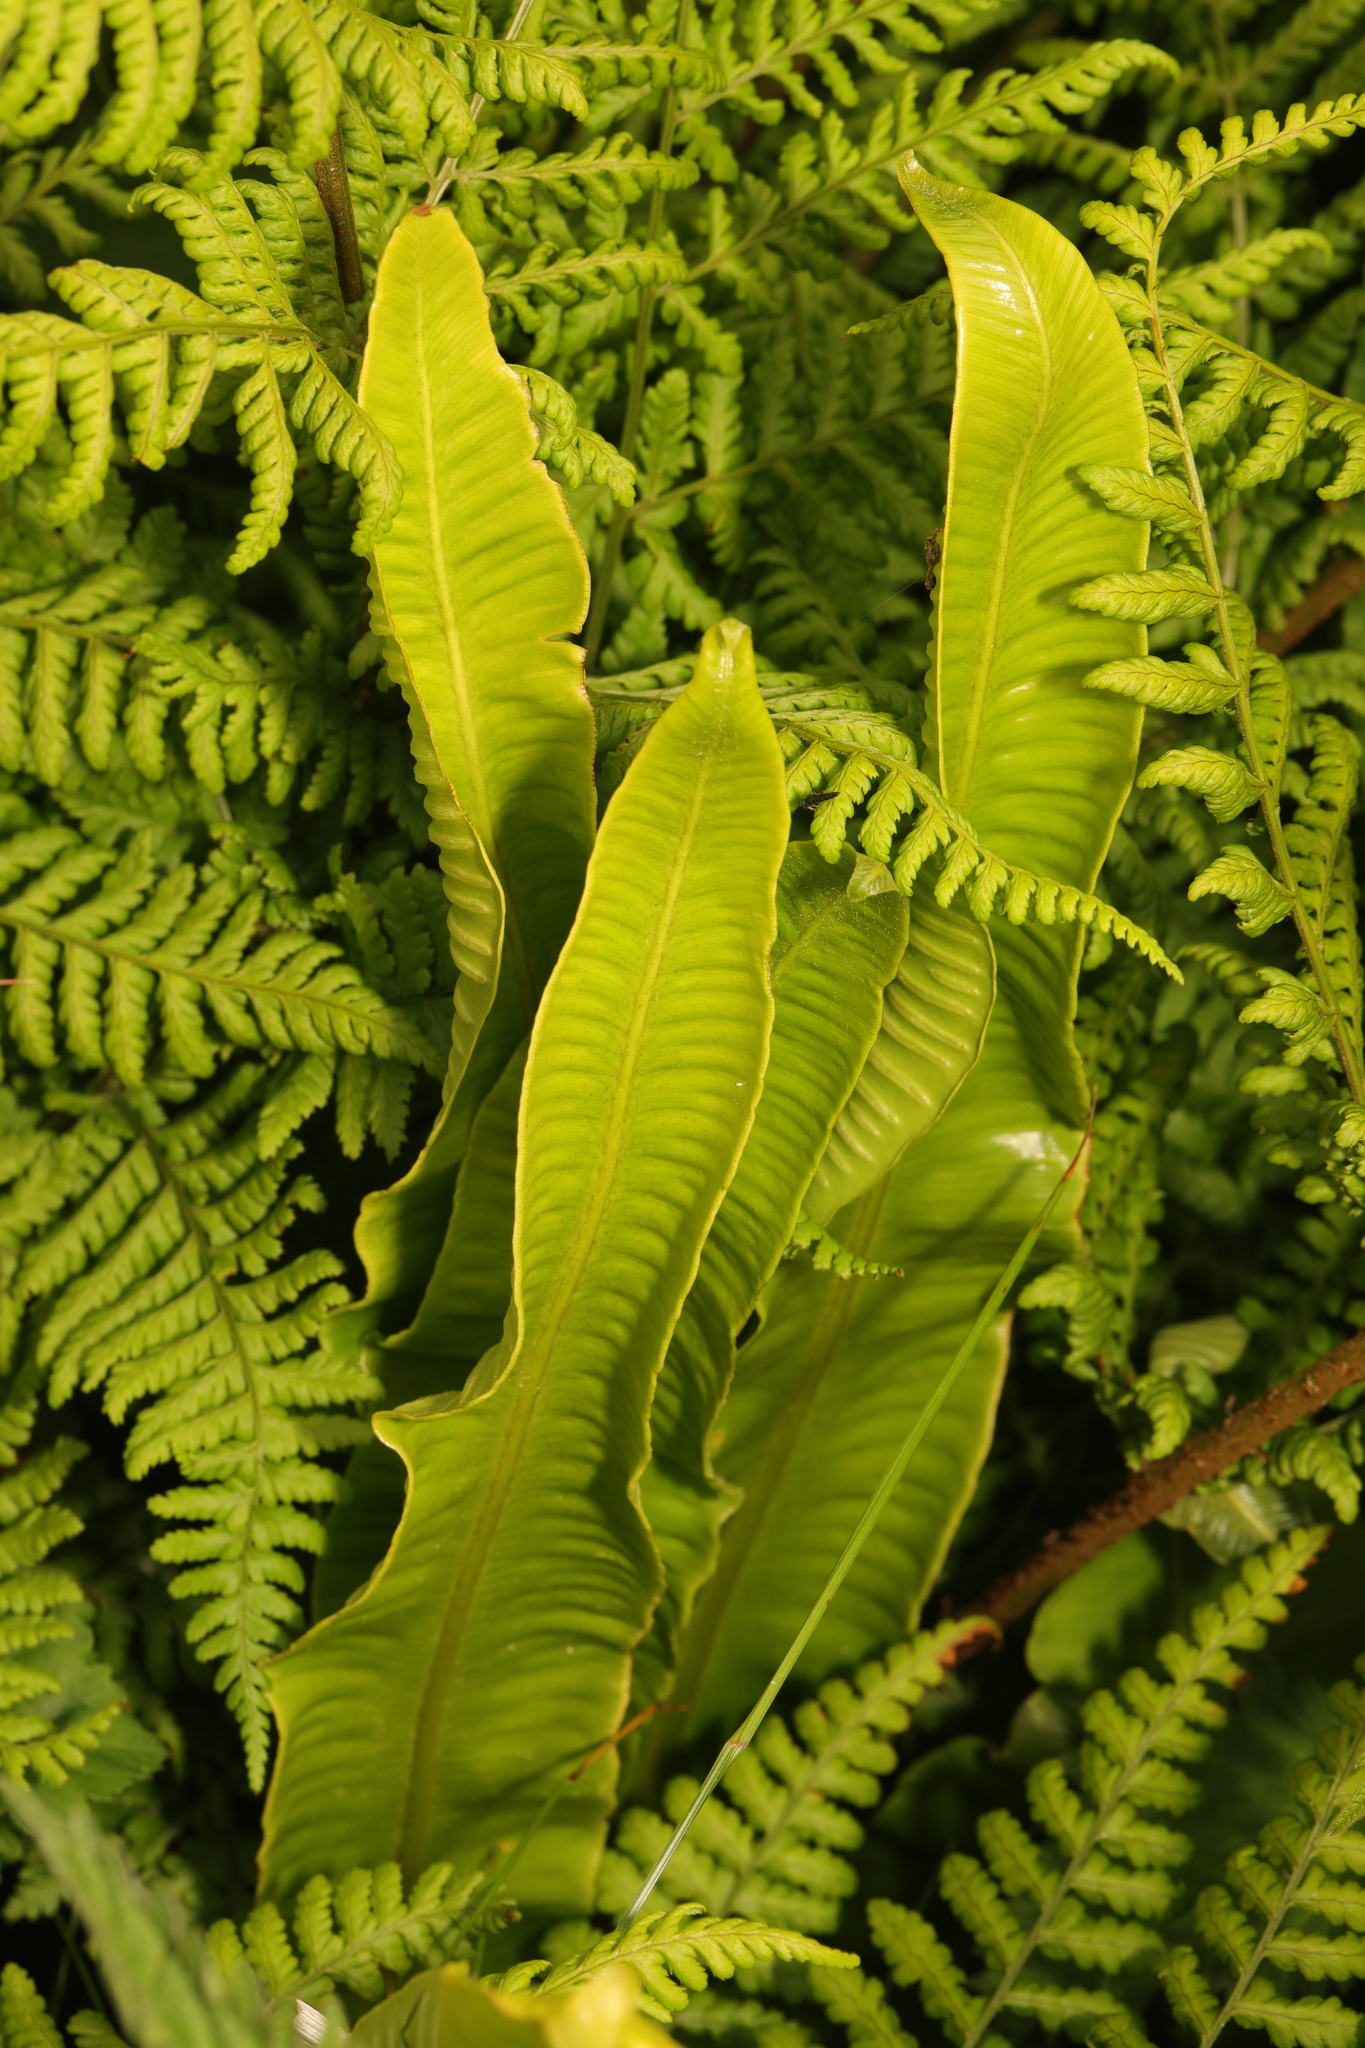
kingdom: Plantae
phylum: Tracheophyta
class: Polypodiopsida
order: Polypodiales
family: Aspleniaceae
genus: Asplenium
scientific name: Asplenium scolopendrium
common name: Hart's-tongue fern
